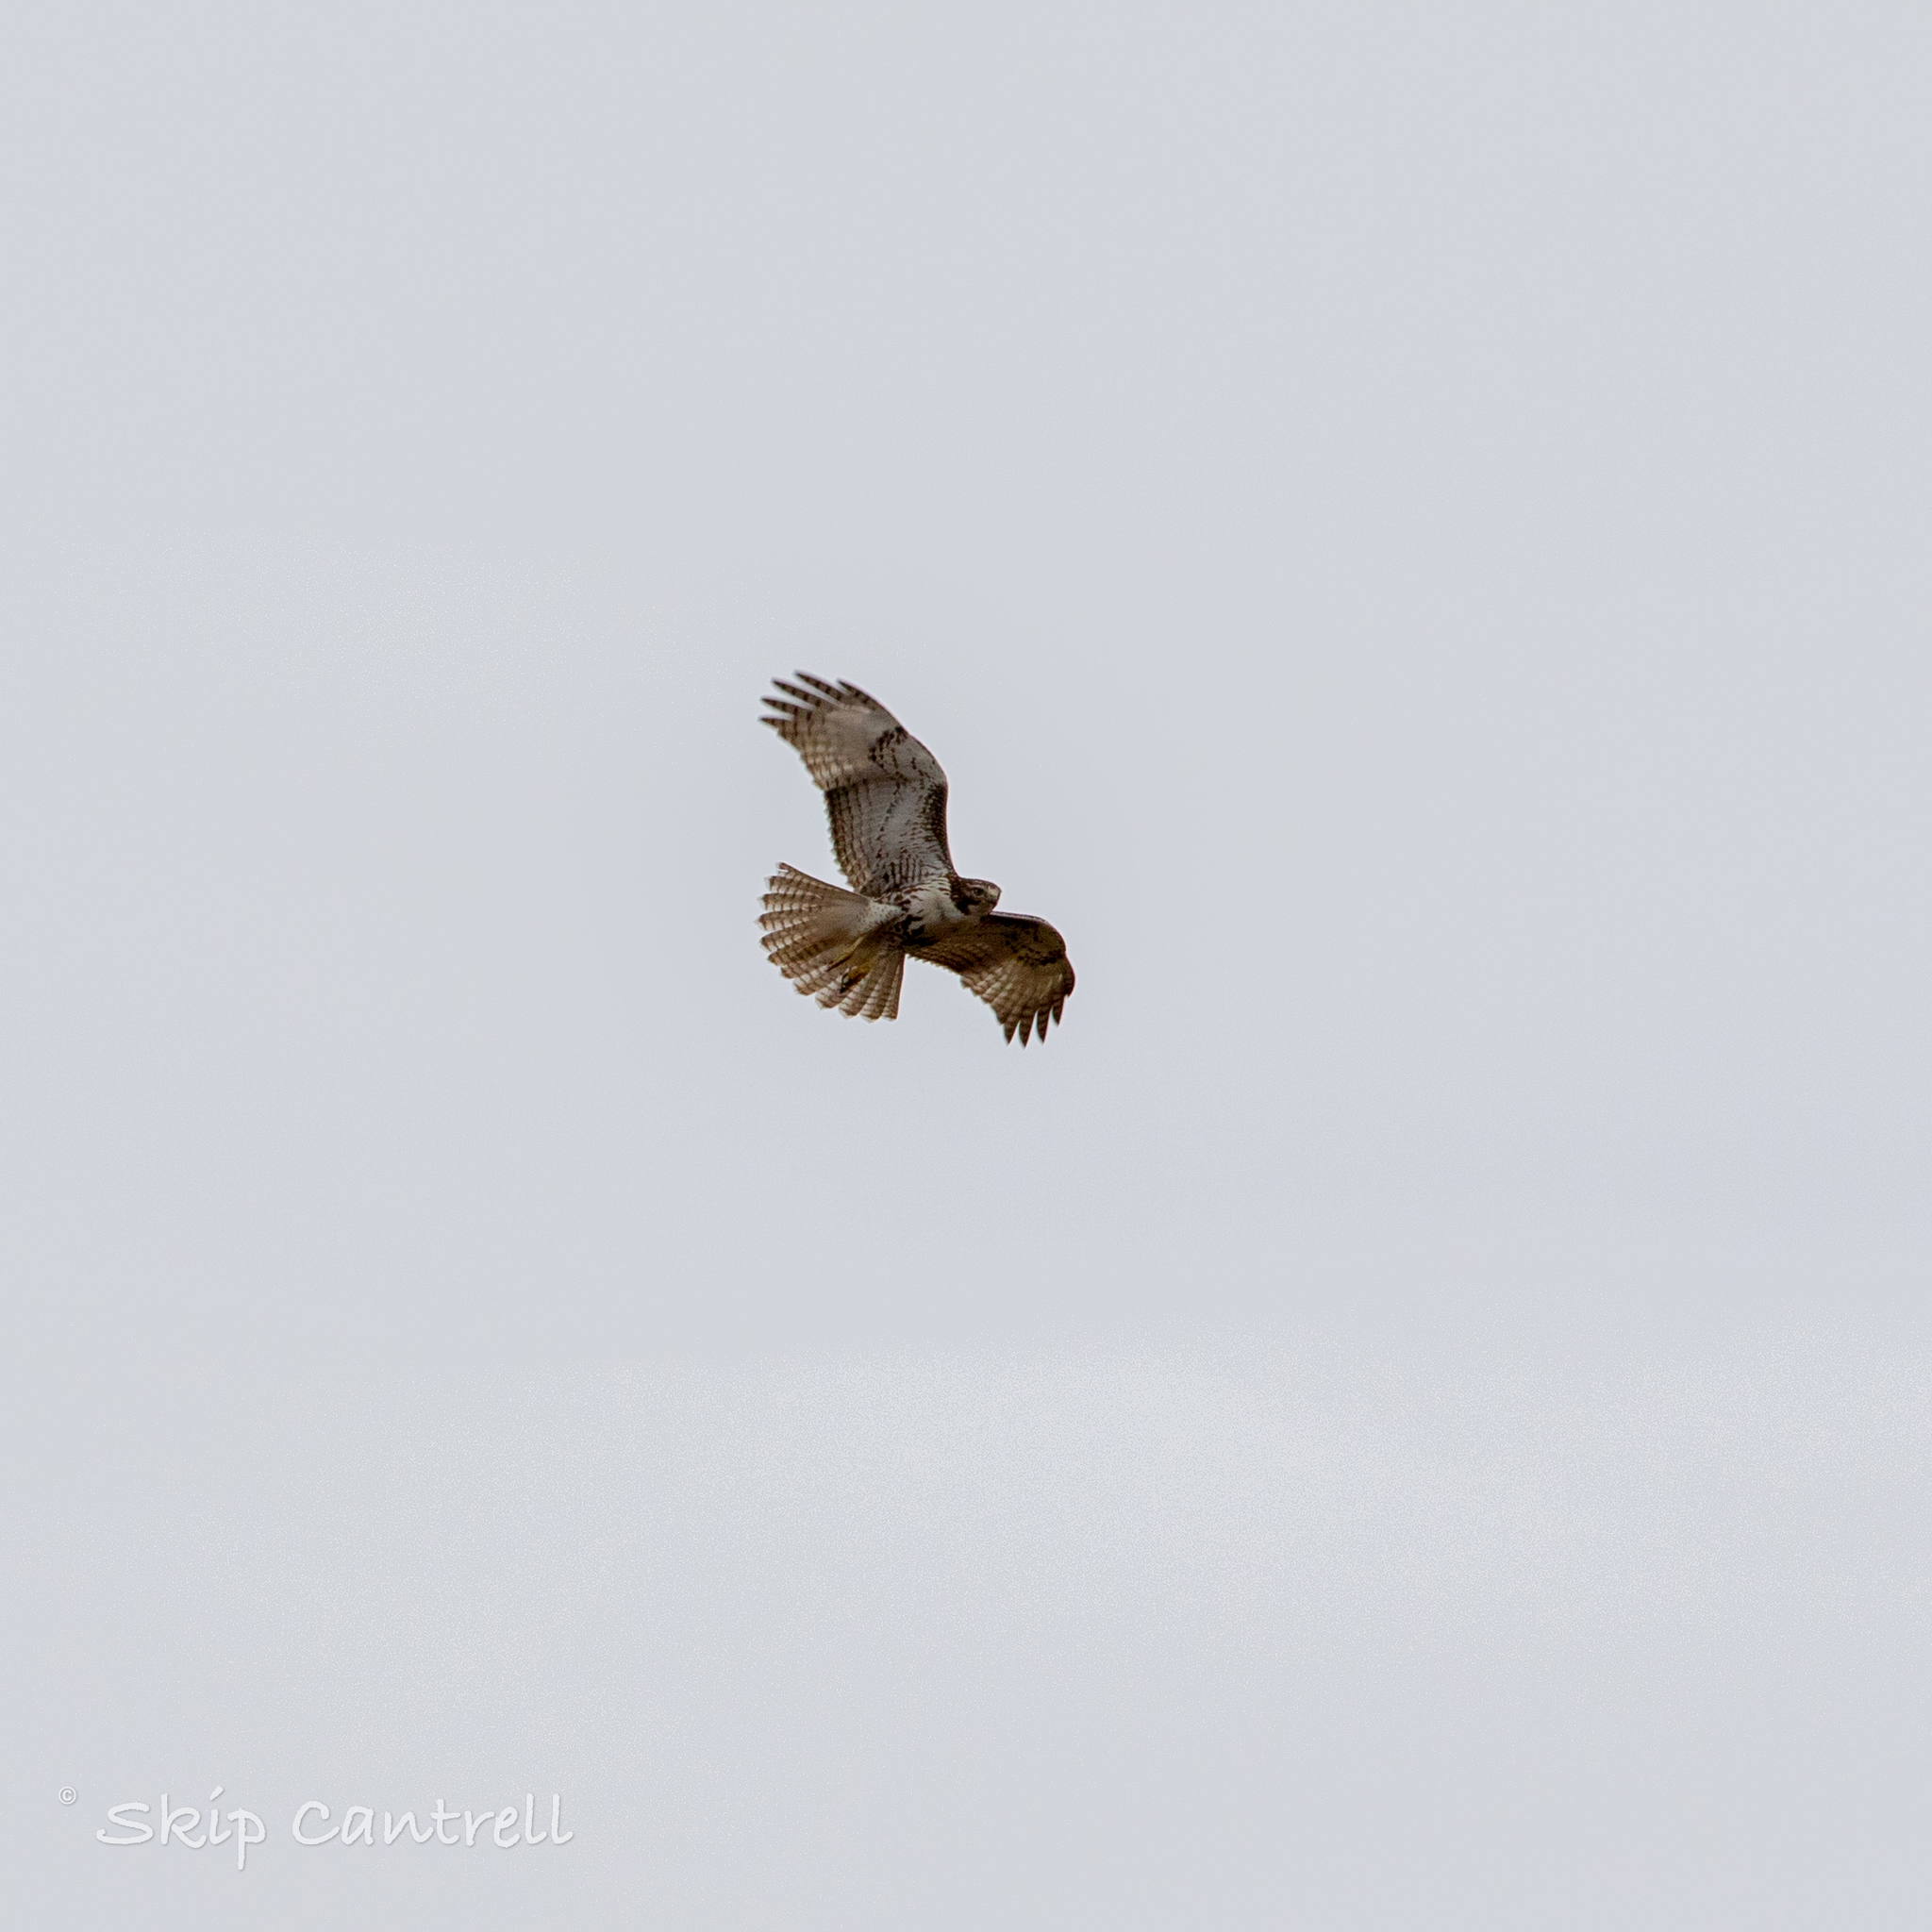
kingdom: Animalia
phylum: Chordata
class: Aves
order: Accipitriformes
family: Accipitridae
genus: Buteo
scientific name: Buteo jamaicensis
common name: Red-tailed hawk
